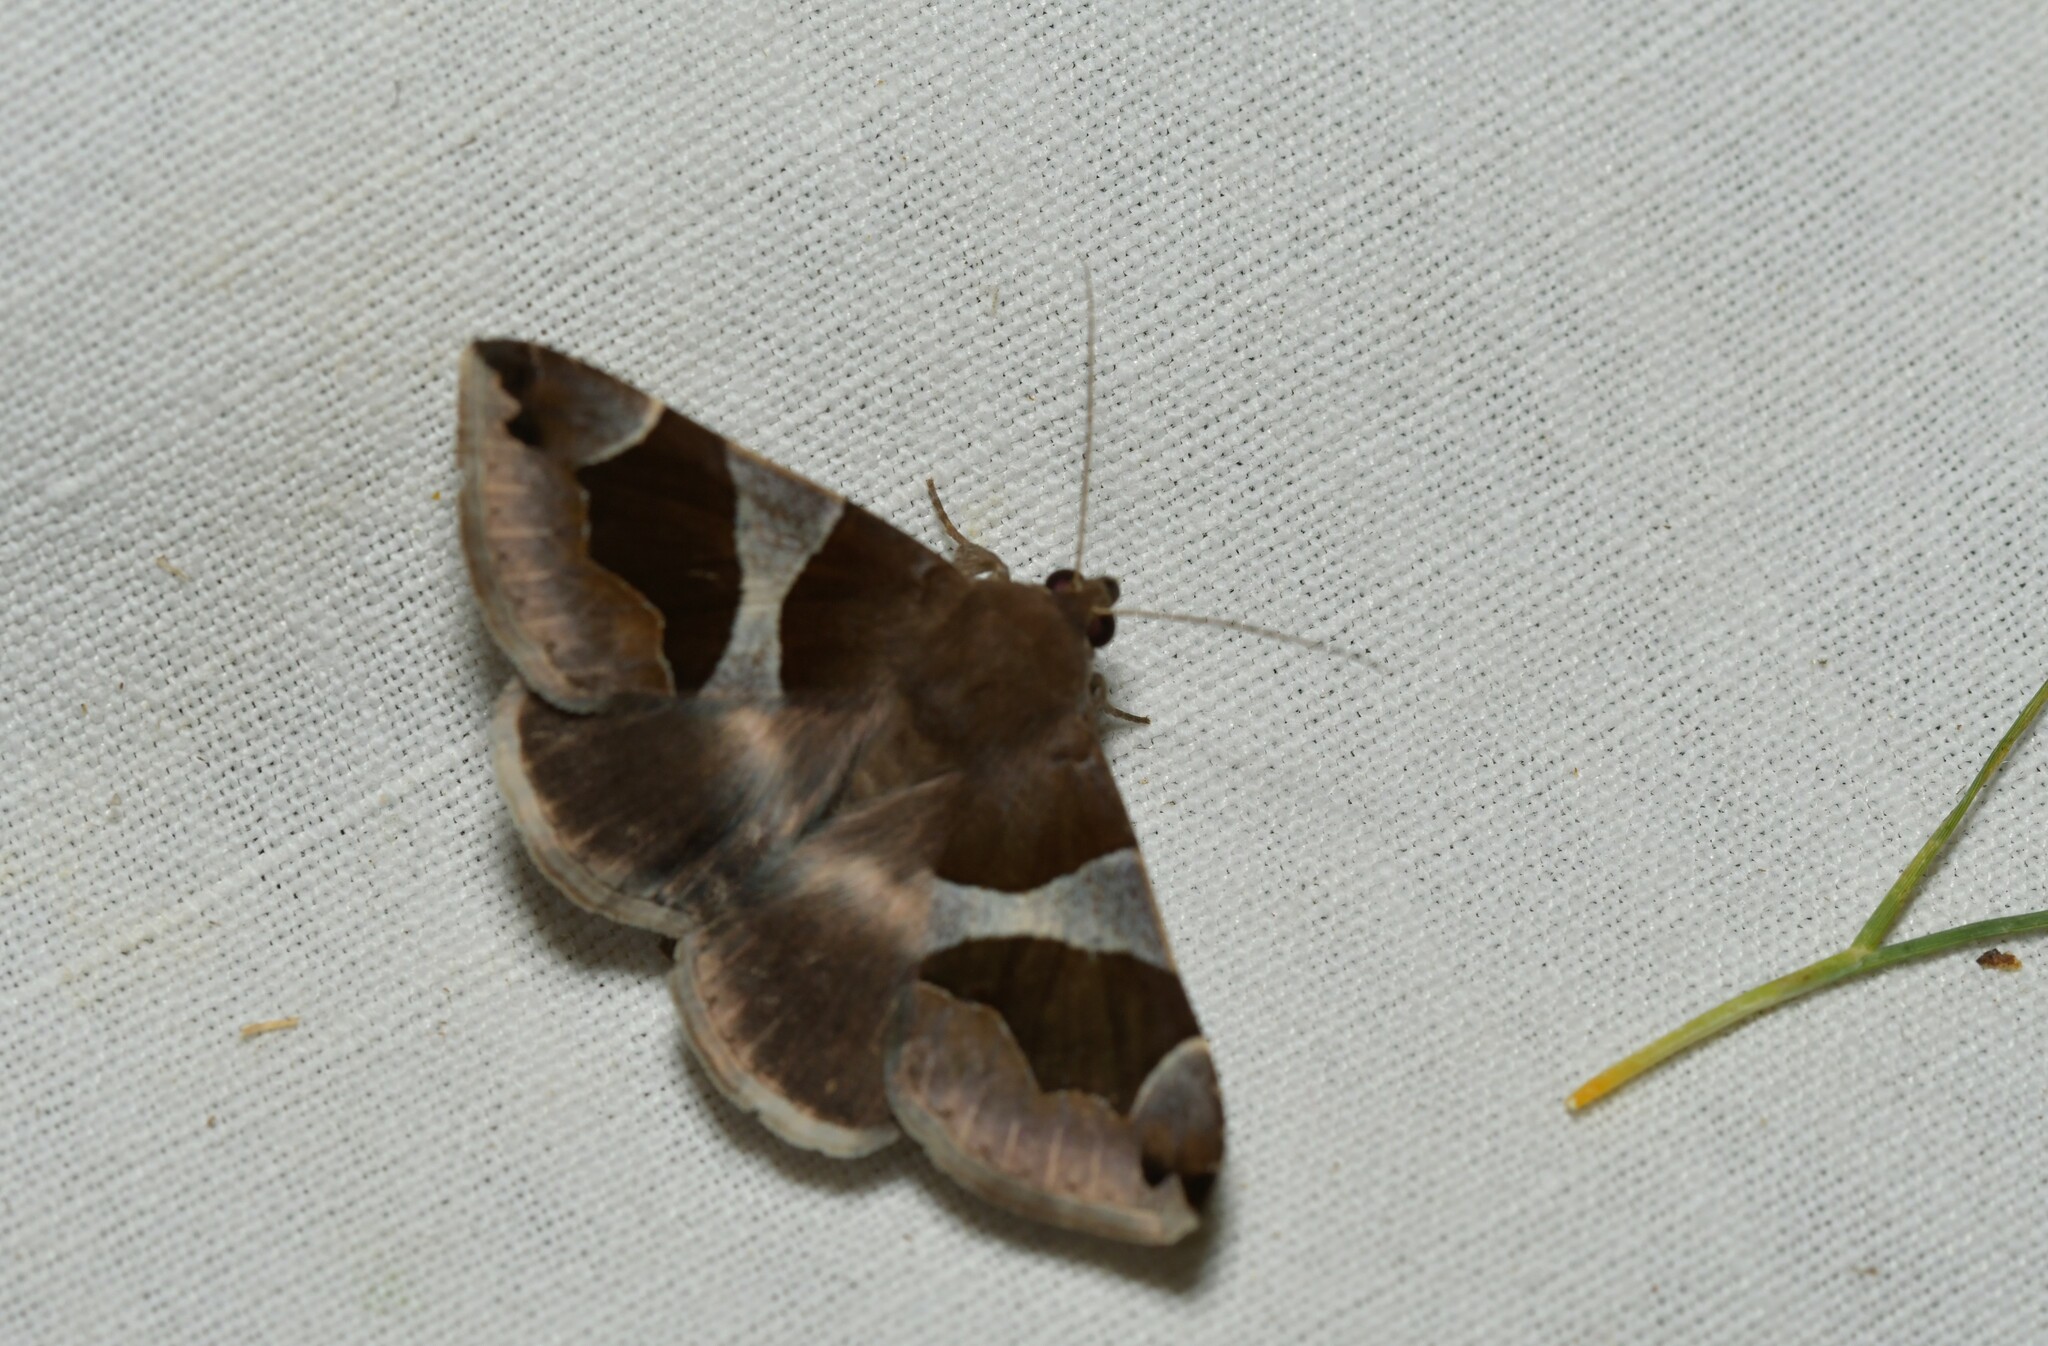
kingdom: Animalia
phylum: Arthropoda
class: Insecta
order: Lepidoptera
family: Erebidae
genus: Dysgonia
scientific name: Dysgonia algira
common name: Passenger
